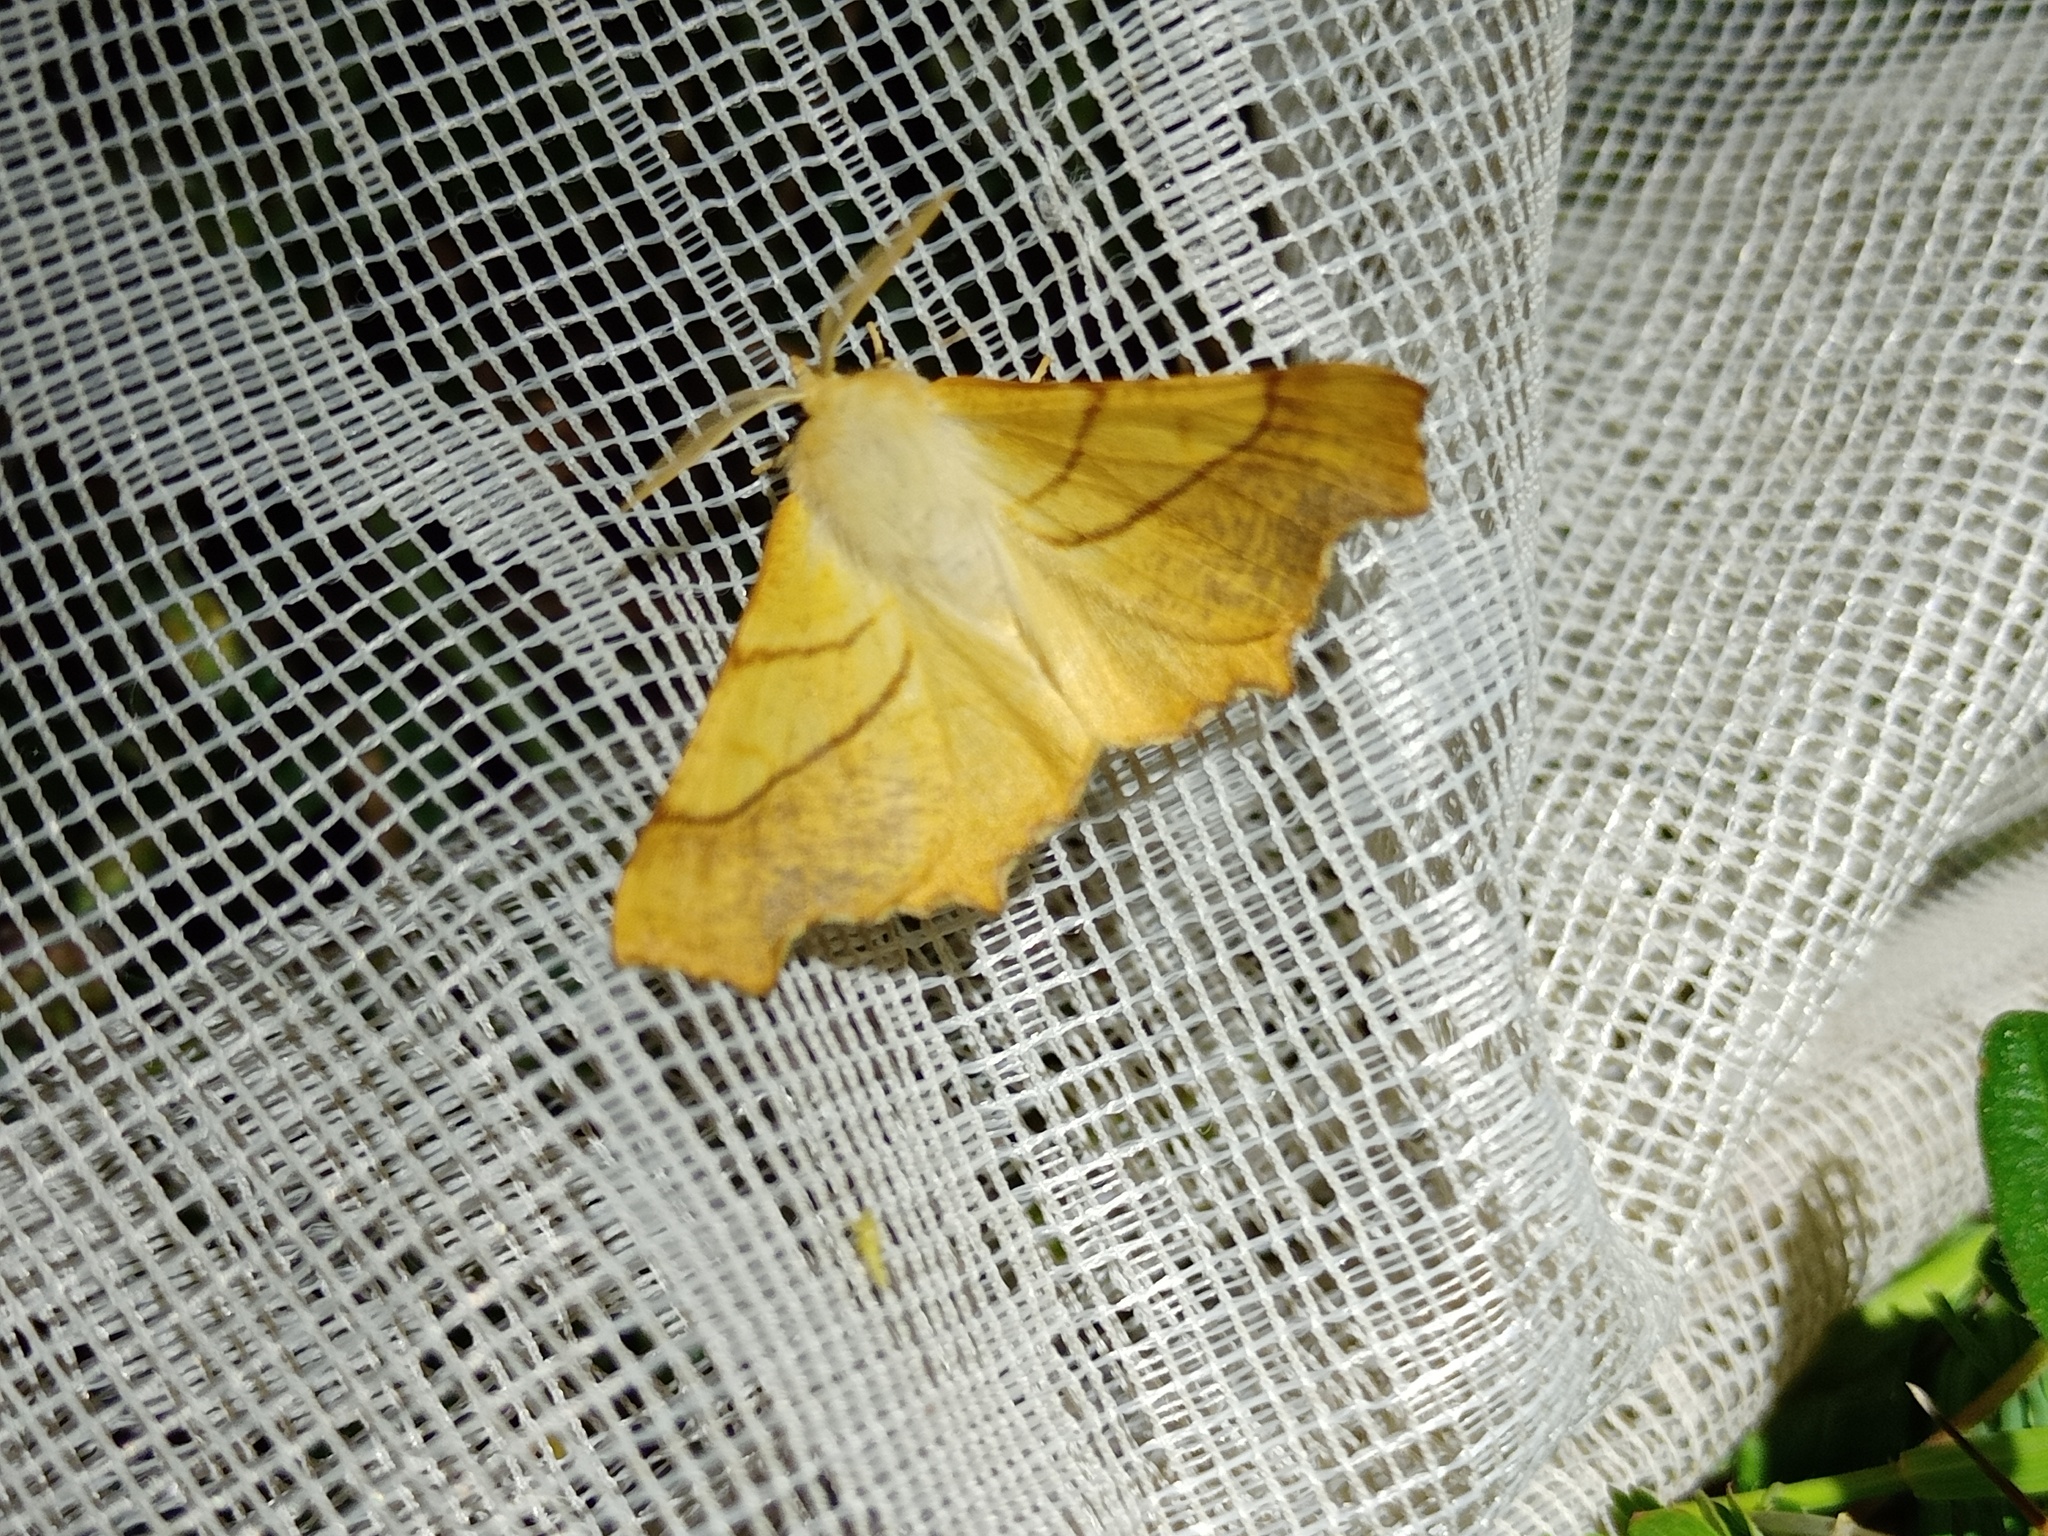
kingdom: Animalia
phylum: Arthropoda
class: Insecta
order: Lepidoptera
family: Geometridae
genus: Ennomos
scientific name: Ennomos fuscantaria
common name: Dusky thorn
